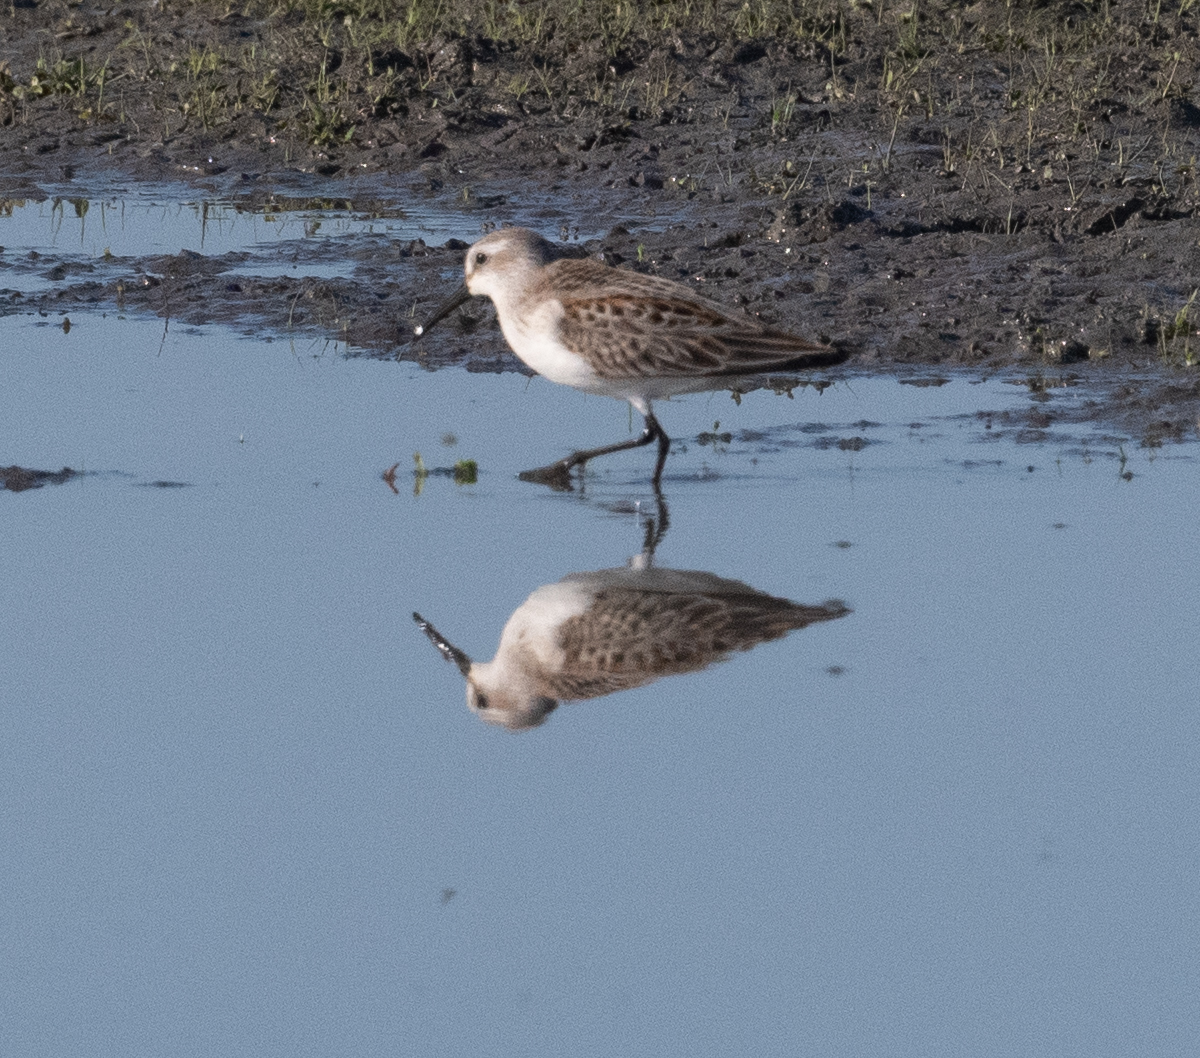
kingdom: Animalia
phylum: Chordata
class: Aves
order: Charadriiformes
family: Scolopacidae
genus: Calidris
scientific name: Calidris mauri
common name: Western sandpiper
